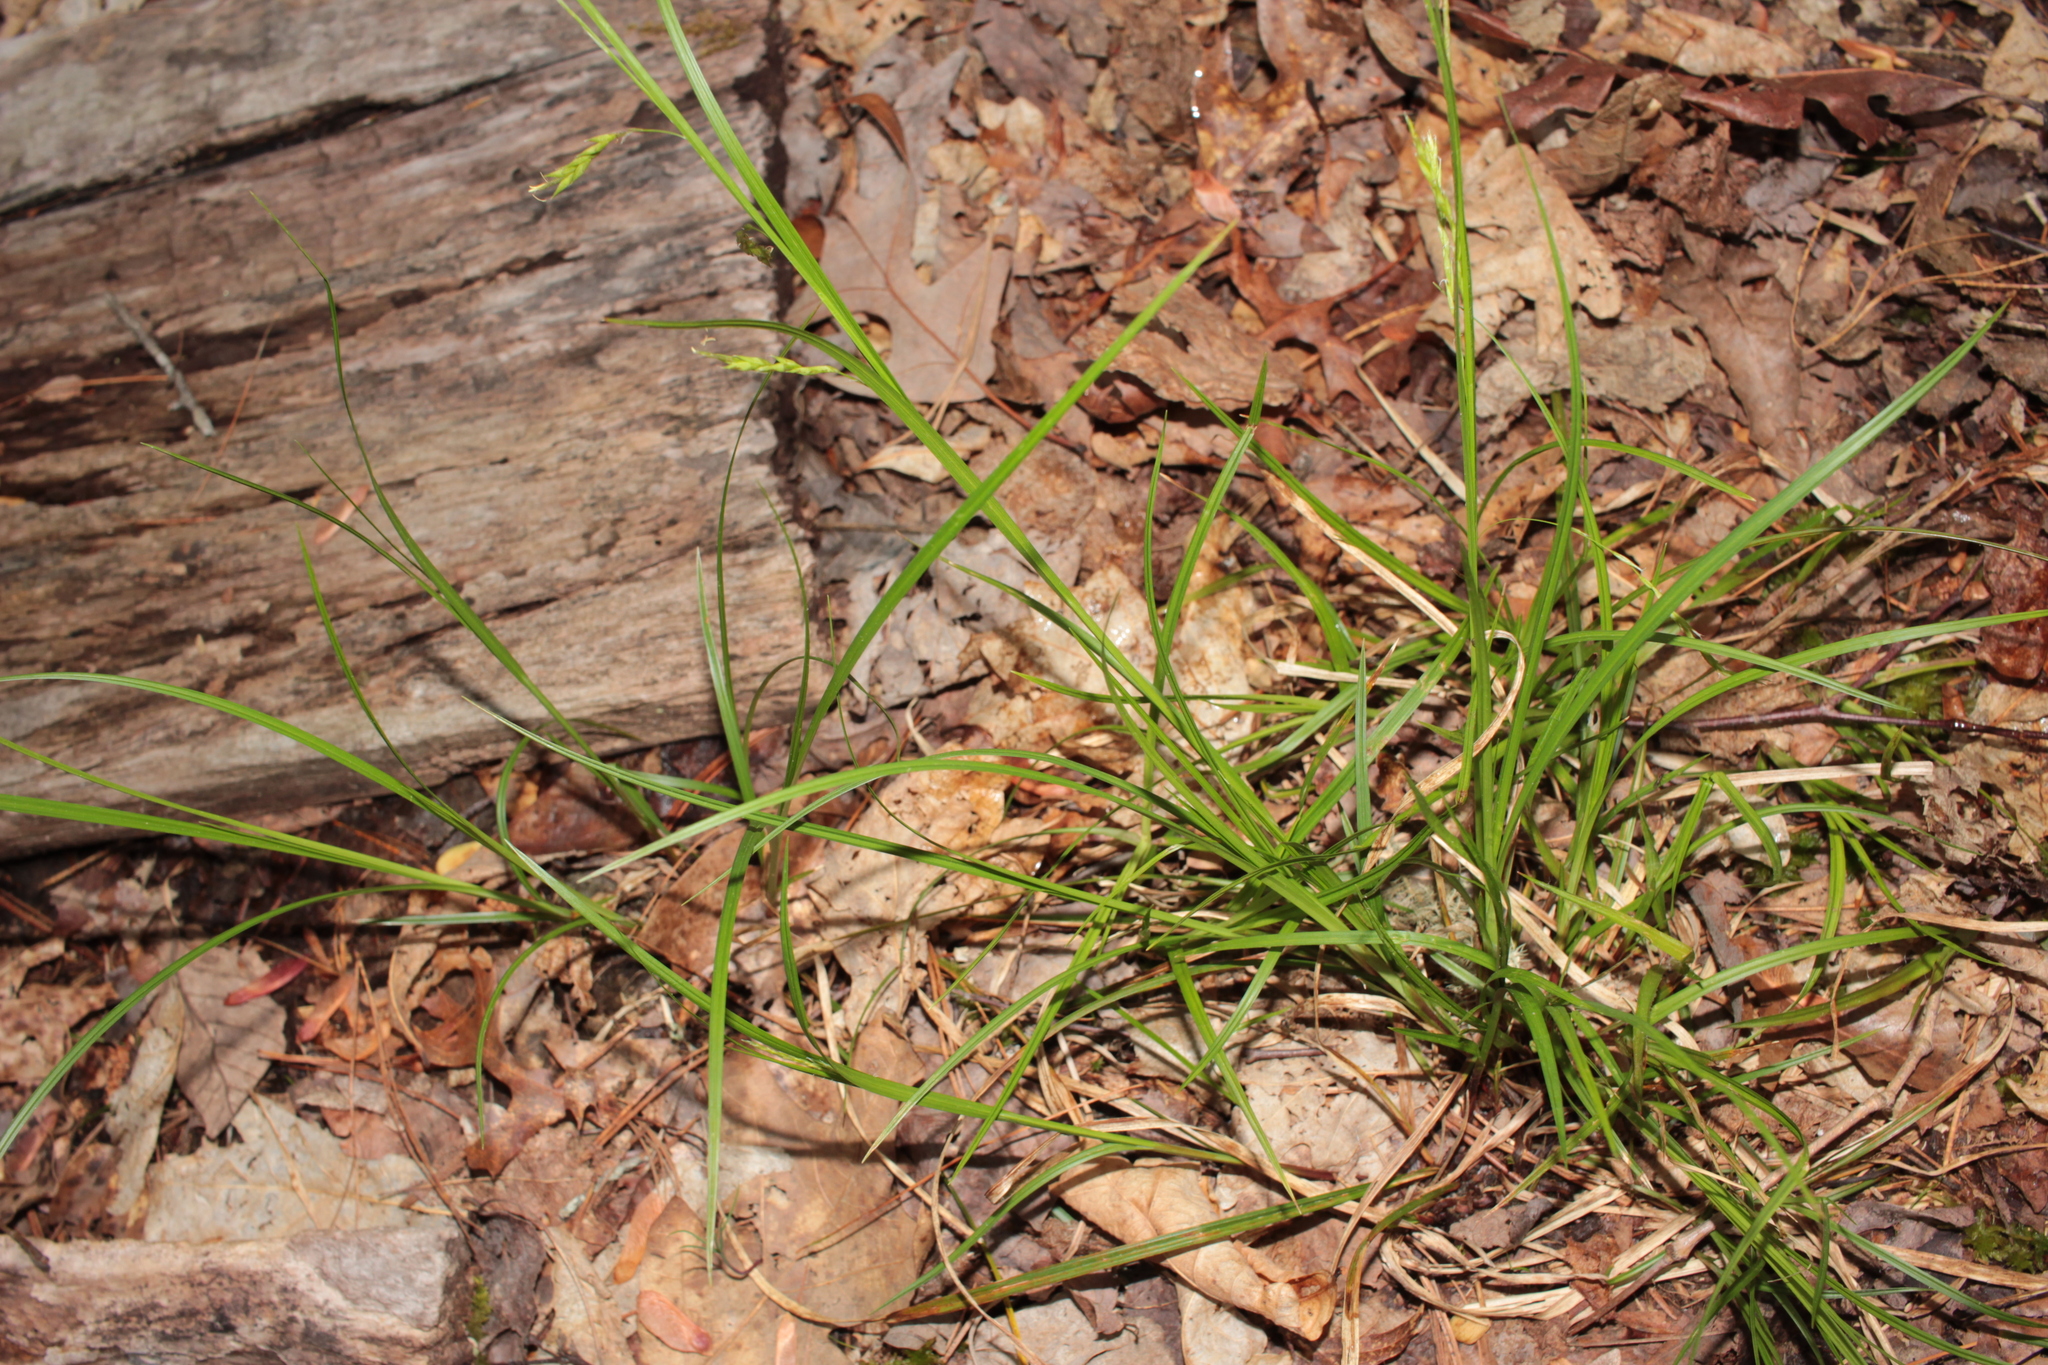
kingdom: Plantae
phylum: Tracheophyta
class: Liliopsida
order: Poales
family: Cyperaceae
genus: Carex
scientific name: Carex debilis
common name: White-edge sedge
